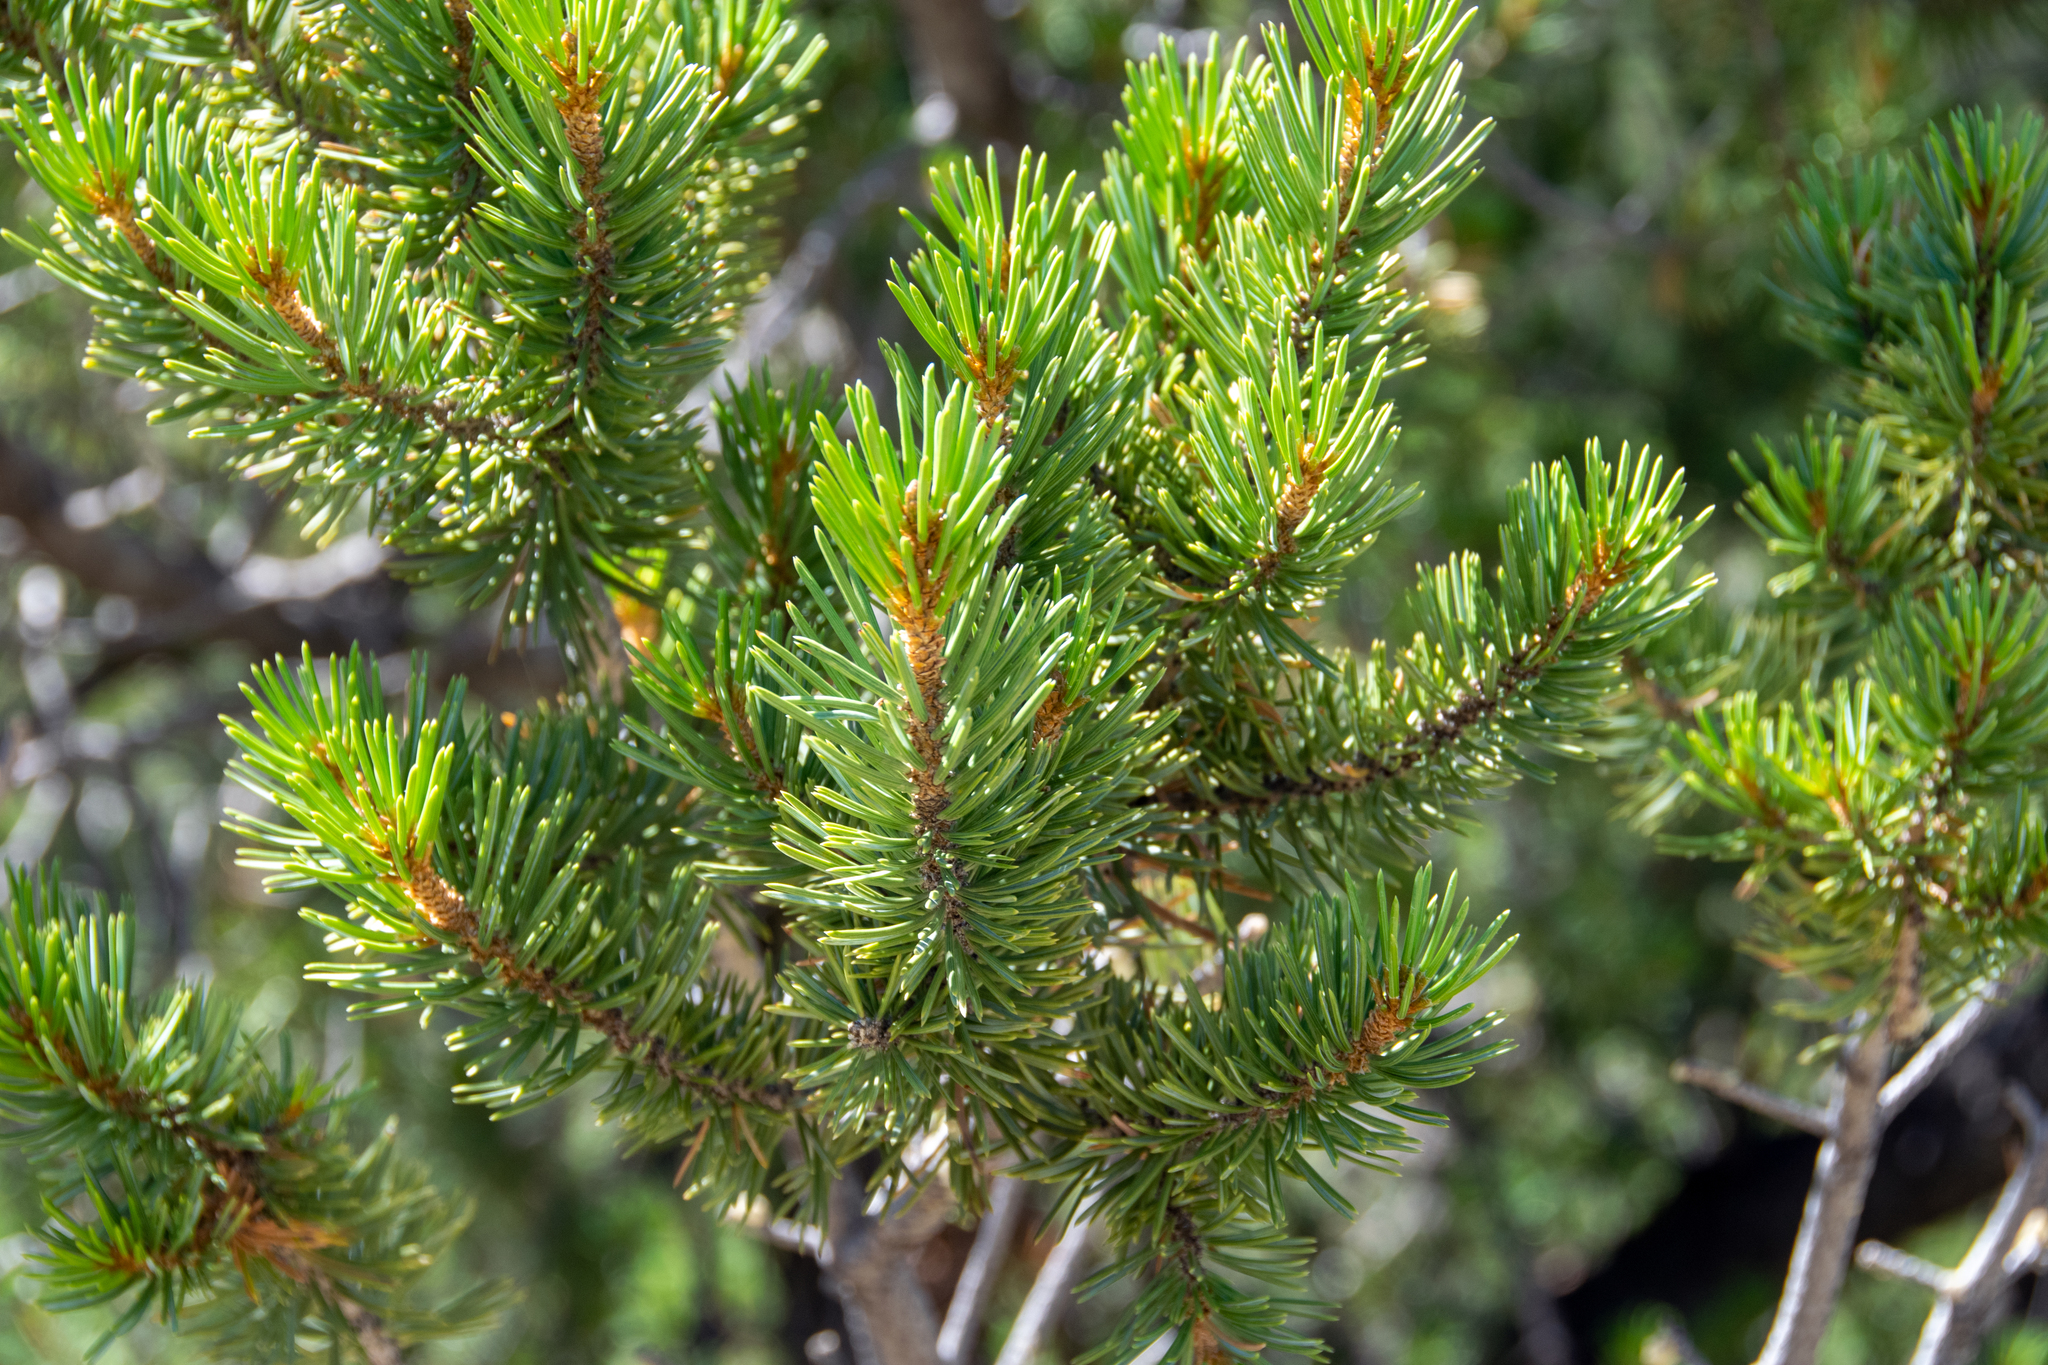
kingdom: Plantae
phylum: Tracheophyta
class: Pinopsida
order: Pinales
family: Pinaceae
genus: Pinus
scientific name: Pinus edulis
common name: Colorado pinyon
